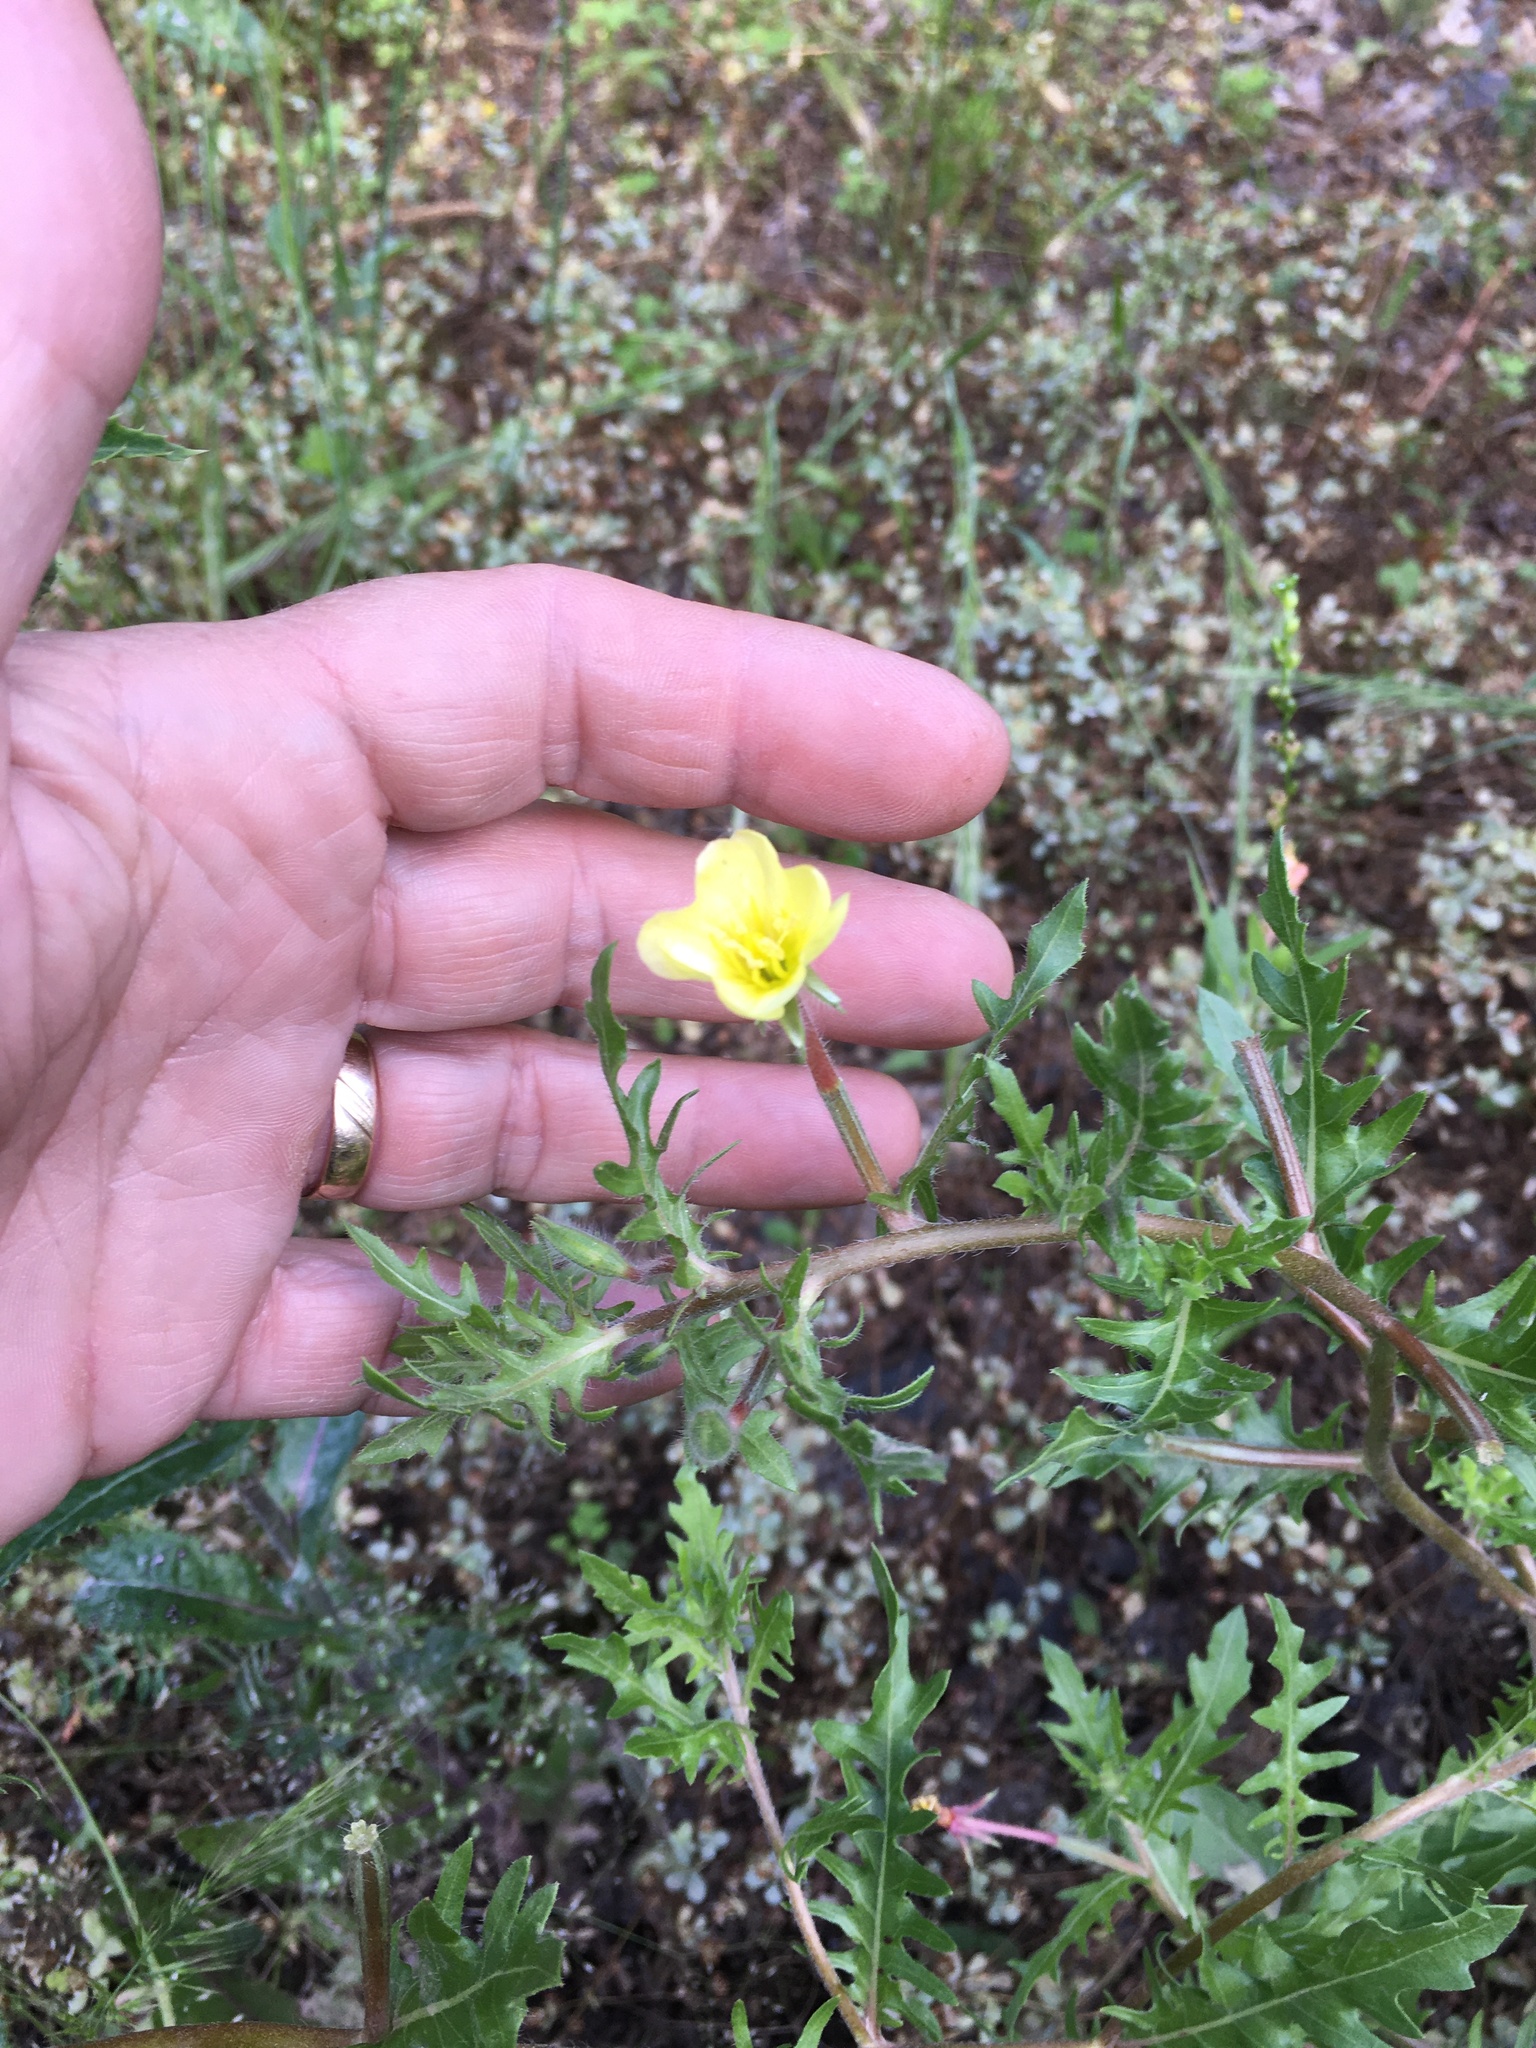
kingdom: Plantae
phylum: Tracheophyta
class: Magnoliopsida
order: Myrtales
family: Onagraceae
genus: Oenothera
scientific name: Oenothera laciniata
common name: Cut-leaved evening-primrose
